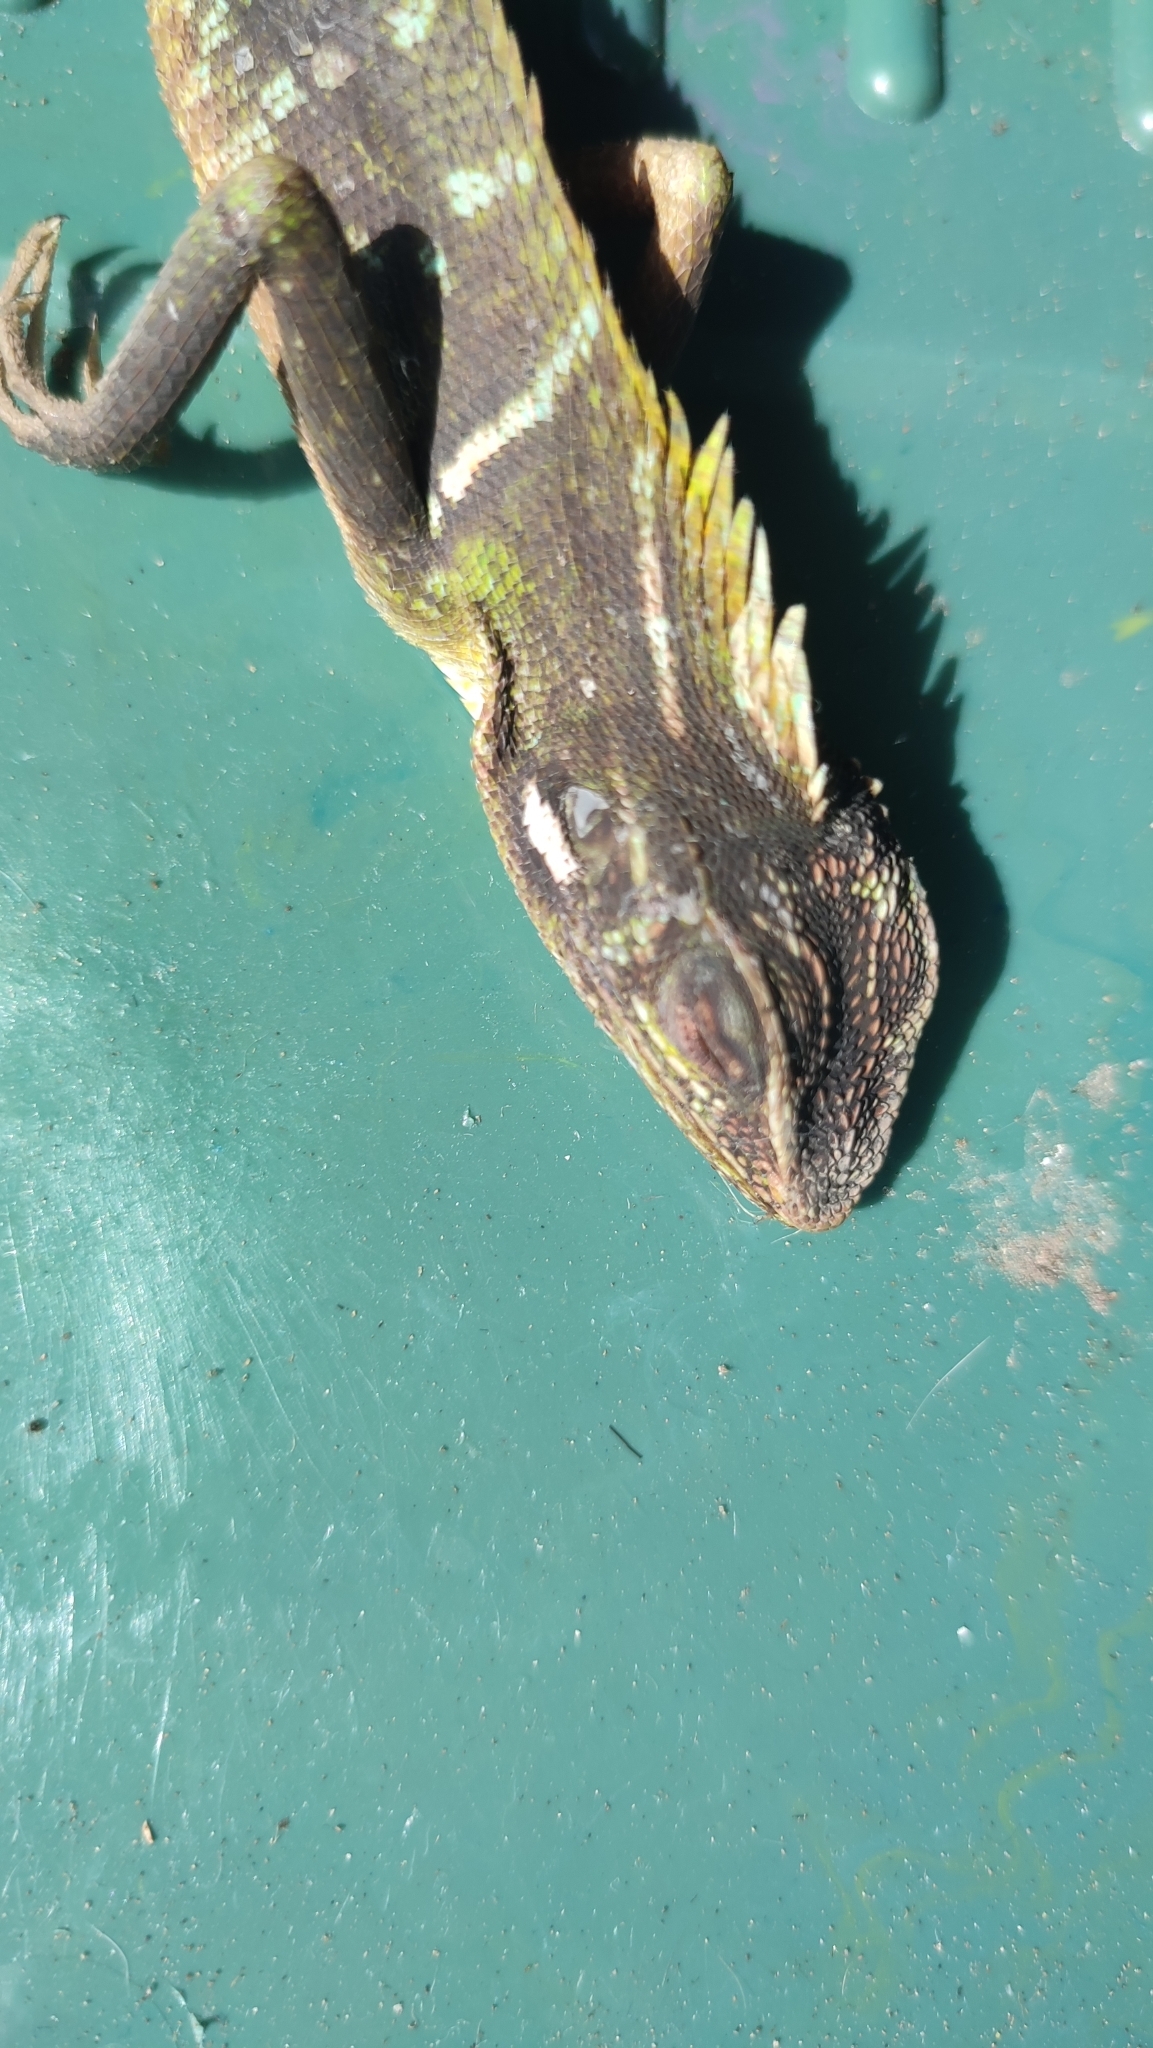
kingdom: Animalia
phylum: Chordata
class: Squamata
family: Agamidae
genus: Bronchocela
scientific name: Bronchocela jubata
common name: Maned forest lizard
